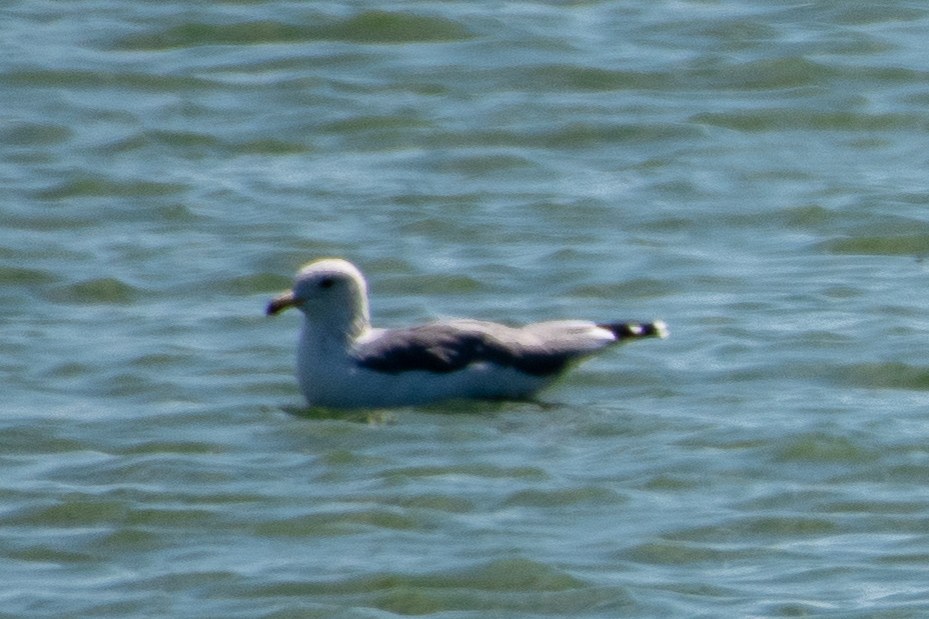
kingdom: Animalia
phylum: Chordata
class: Aves
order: Charadriiformes
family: Laridae
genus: Larus
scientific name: Larus californicus
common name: California gull
